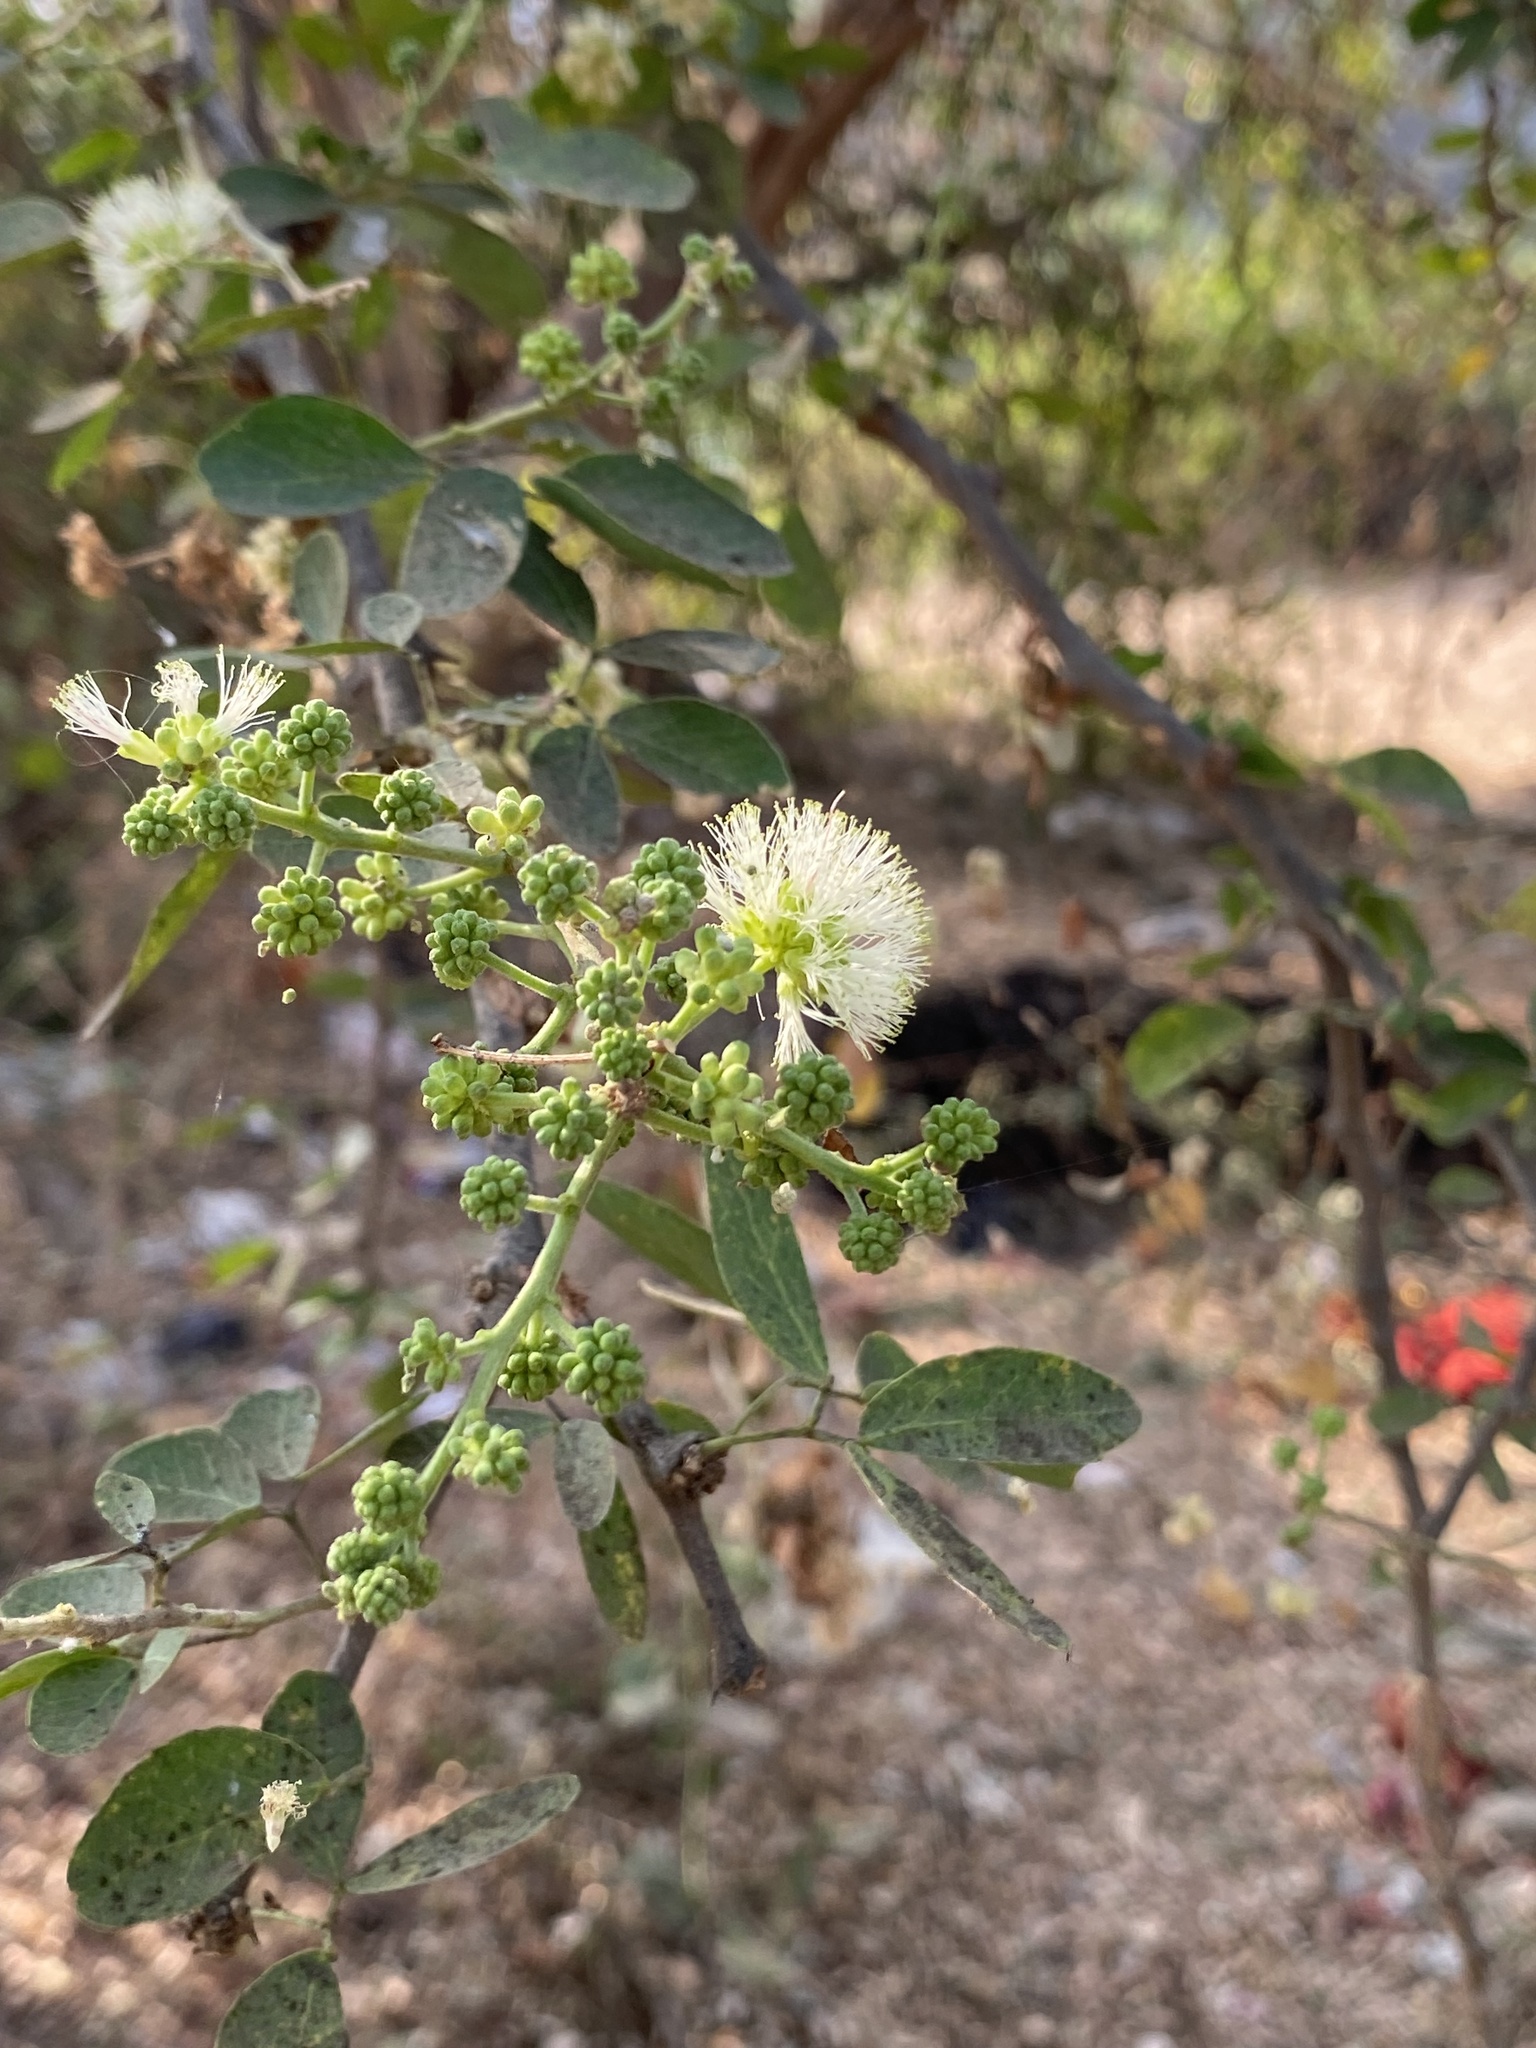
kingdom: Plantae
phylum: Tracheophyta
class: Magnoliopsida
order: Fabales
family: Fabaceae
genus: Pithecellobium
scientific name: Pithecellobium dulce
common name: Monkeypod
